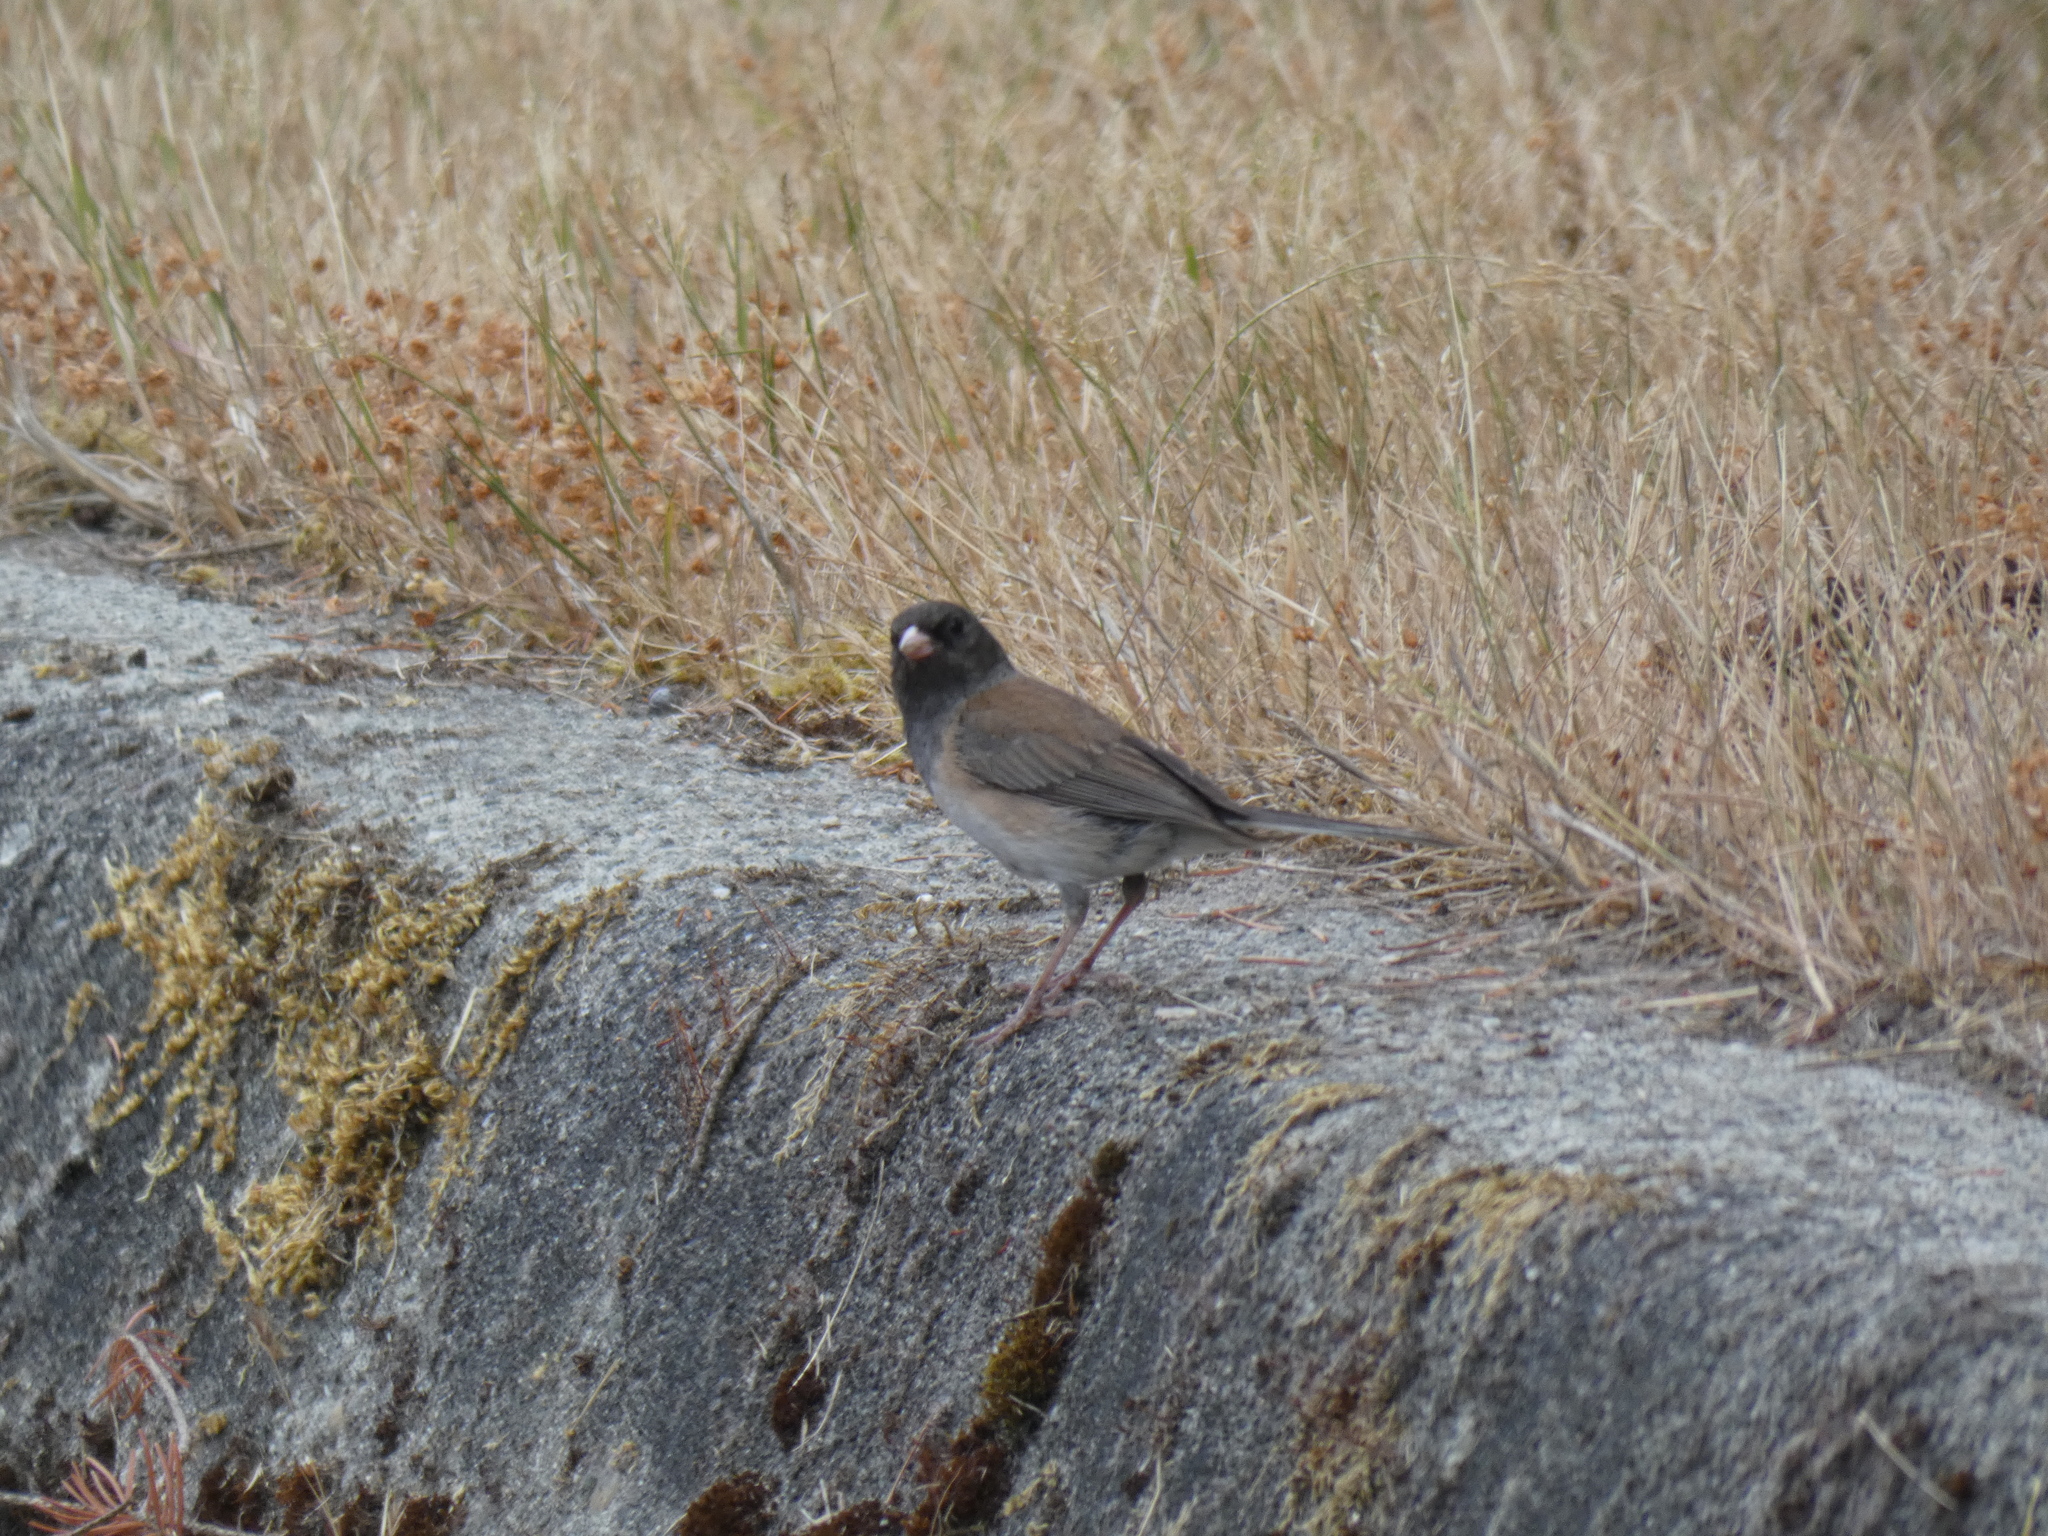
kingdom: Animalia
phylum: Chordata
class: Aves
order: Passeriformes
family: Passerellidae
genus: Junco
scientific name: Junco hyemalis
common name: Dark-eyed junco
